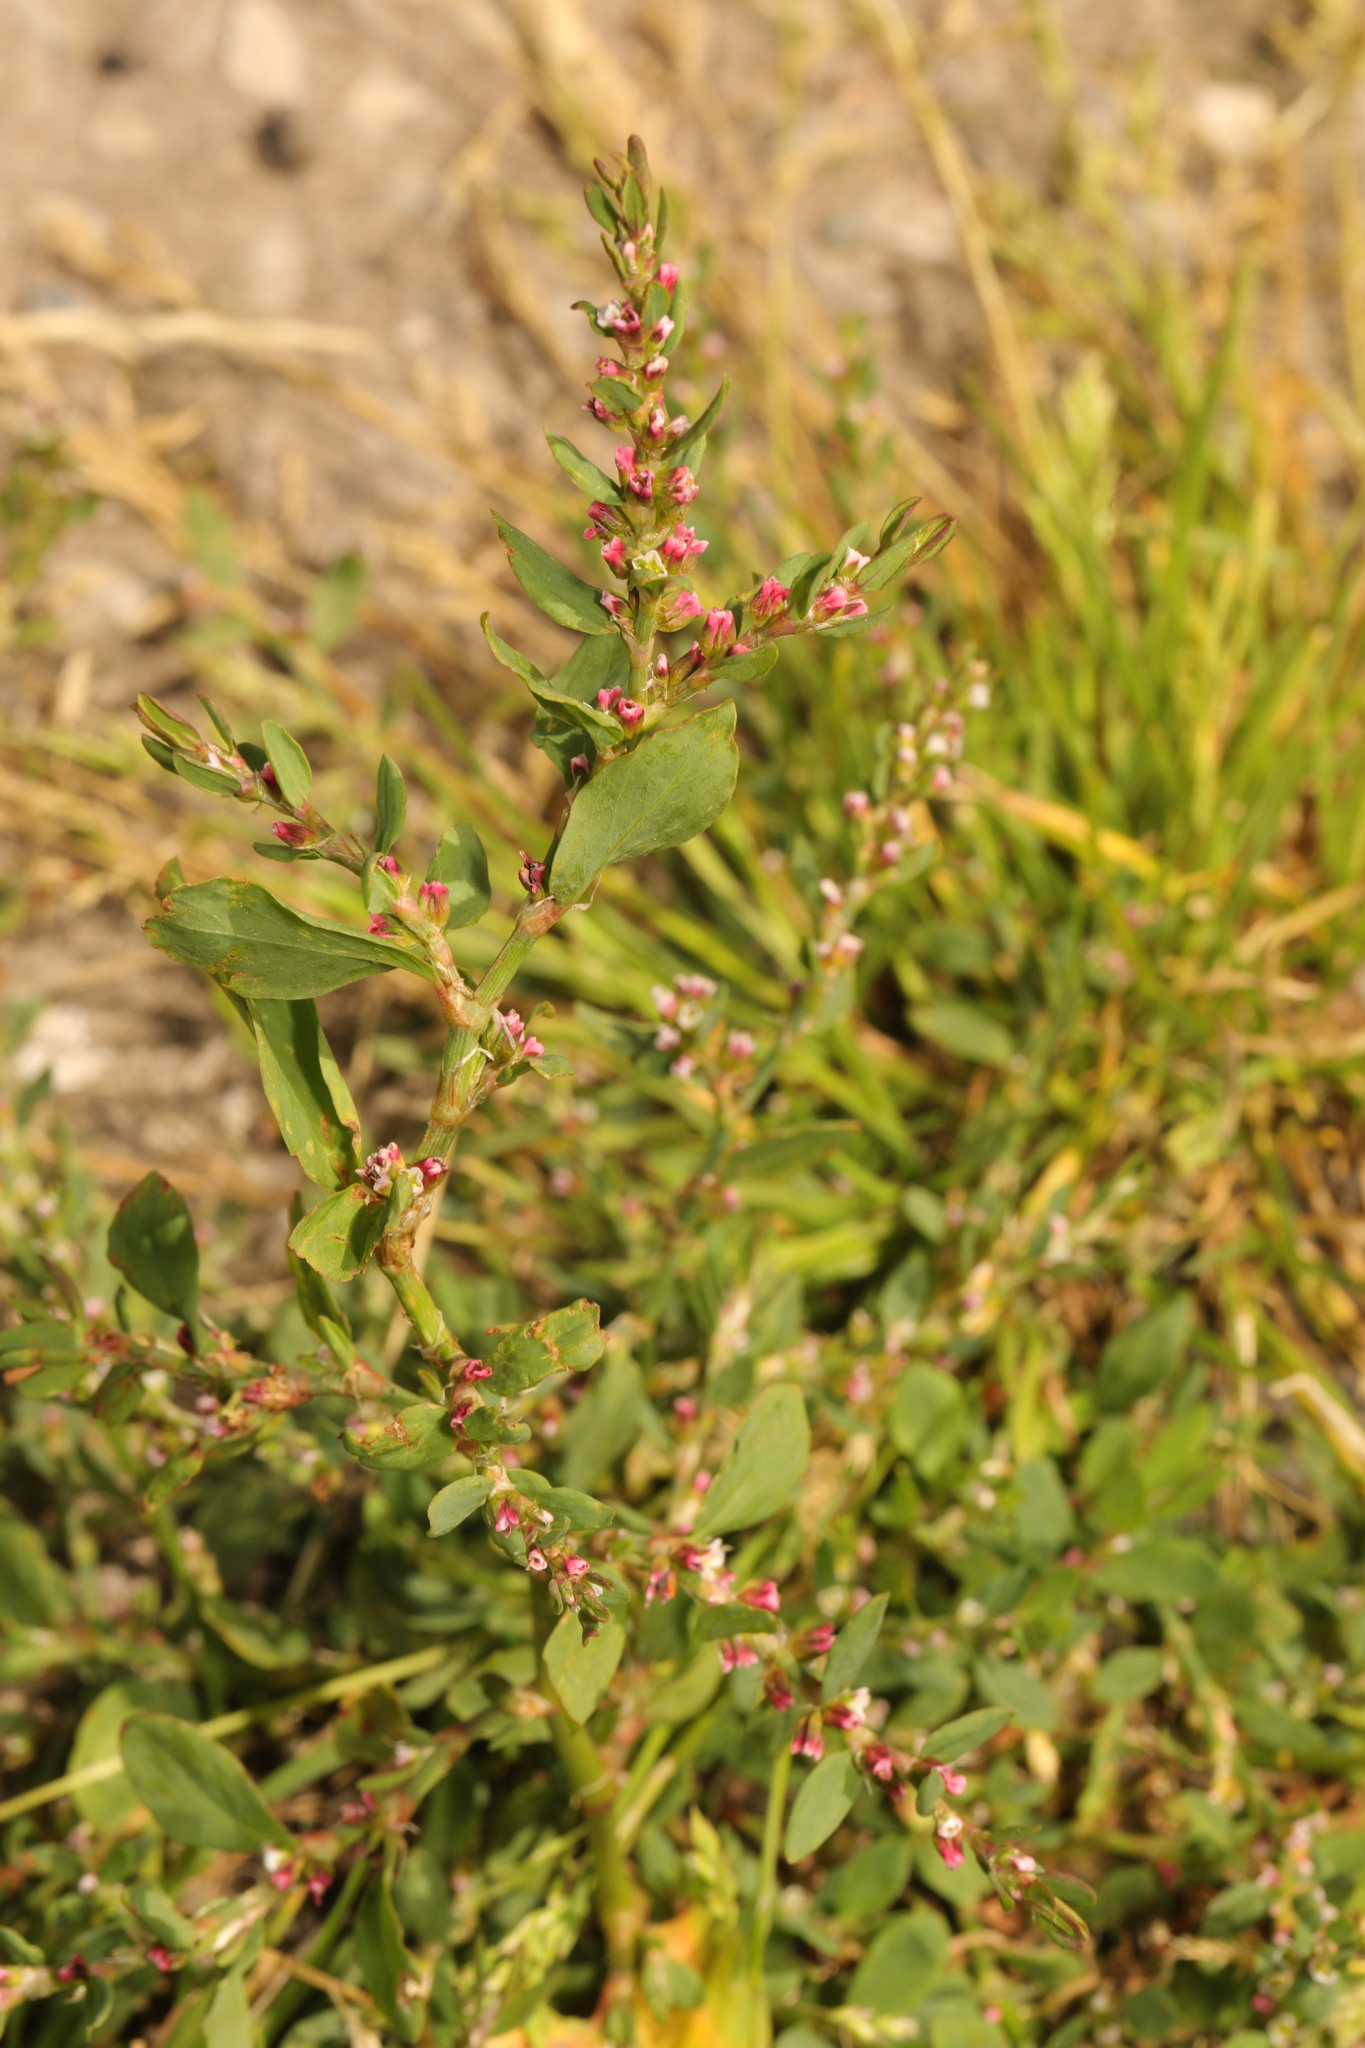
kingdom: Plantae
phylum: Tracheophyta
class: Magnoliopsida
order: Caryophyllales
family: Polygonaceae
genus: Polygonum
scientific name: Polygonum aviculare
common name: Prostrate knotweed
